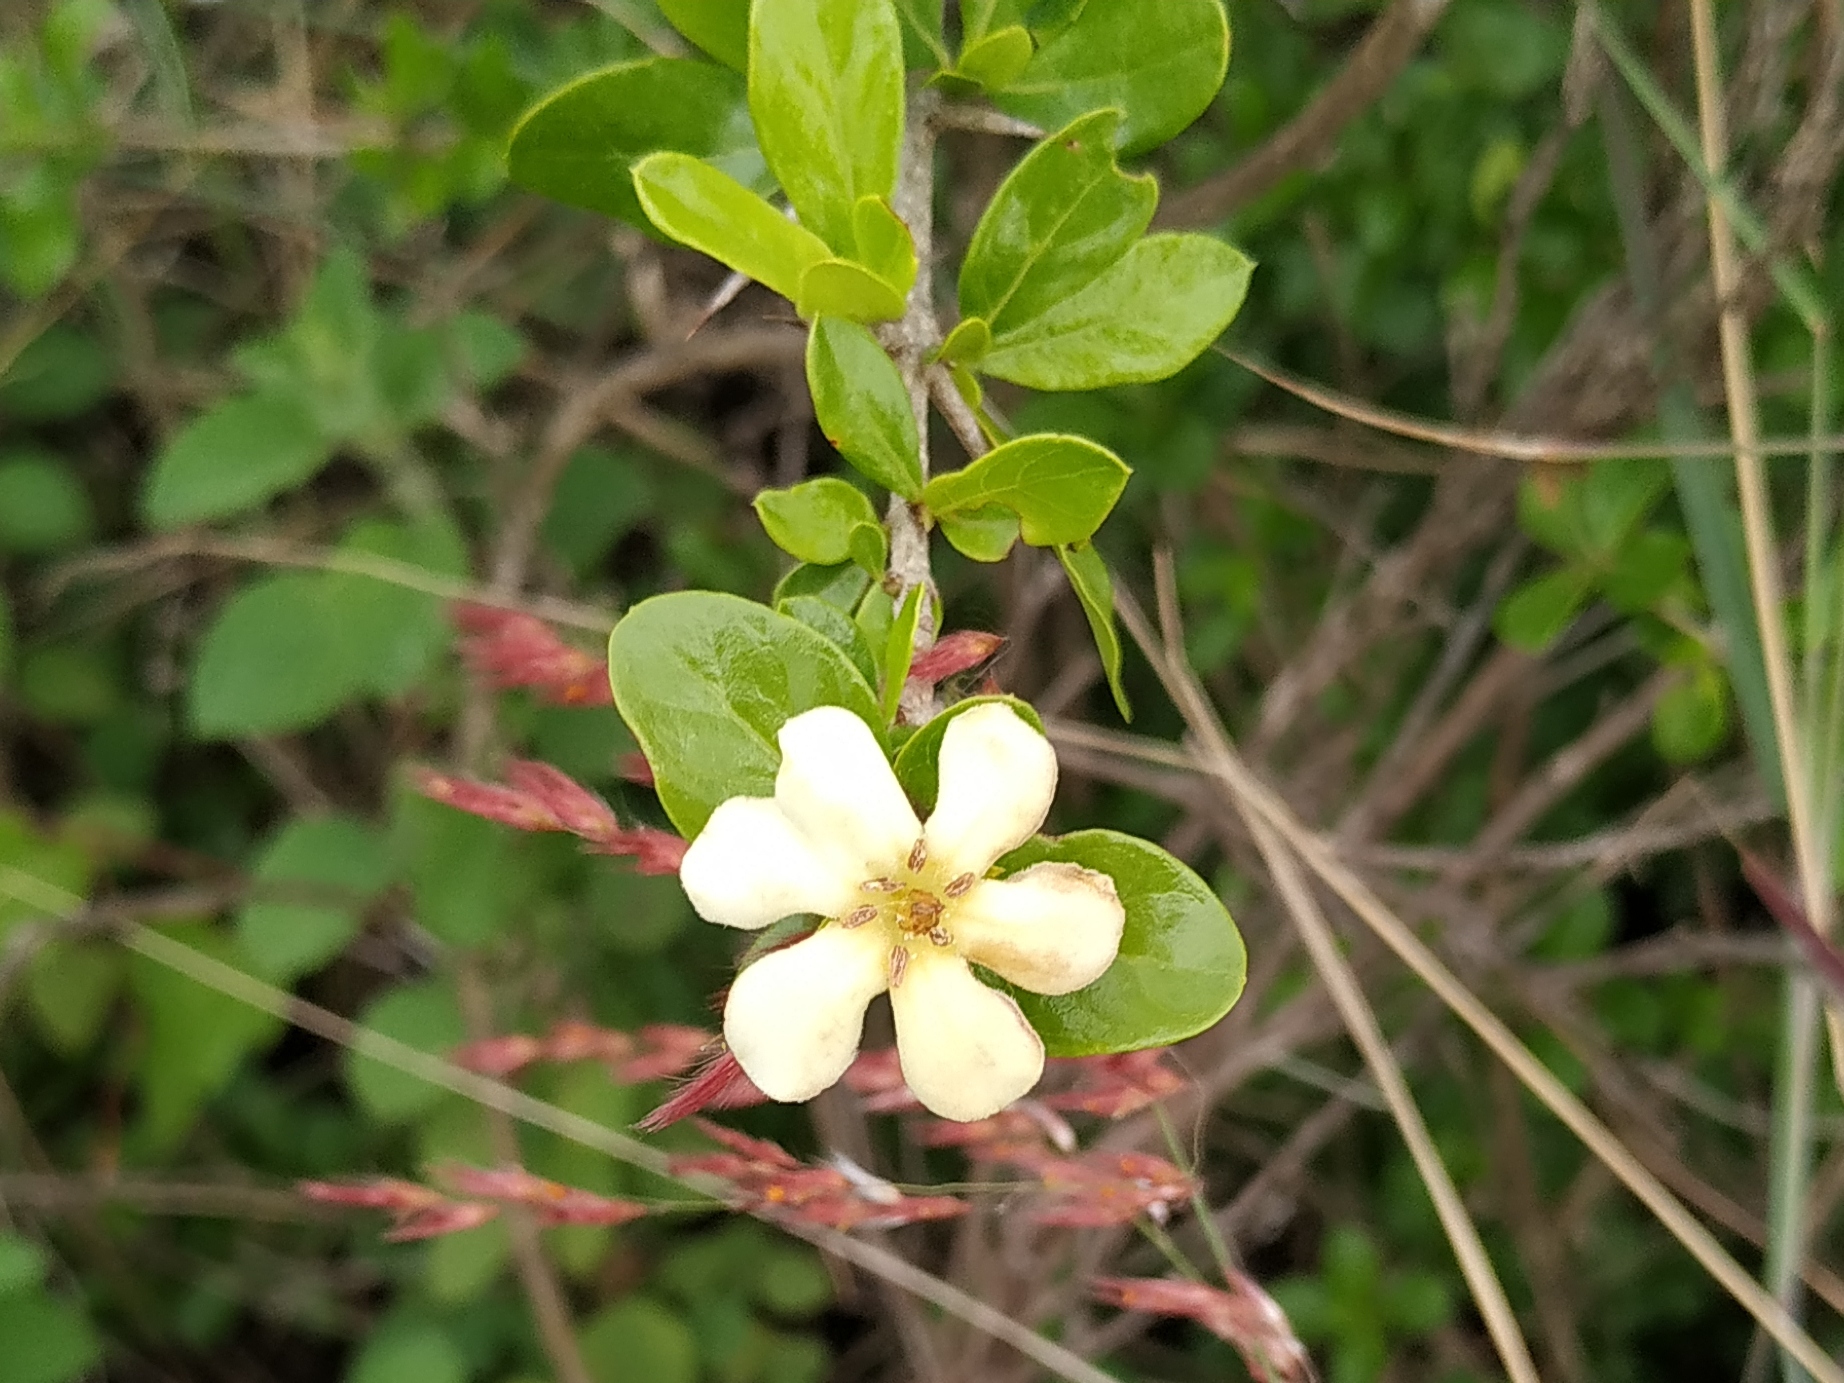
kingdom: Plantae
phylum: Tracheophyta
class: Magnoliopsida
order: Gentianales
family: Rubiaceae
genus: Catunaregam
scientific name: Catunaregam spinosa
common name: Emetic-nut
